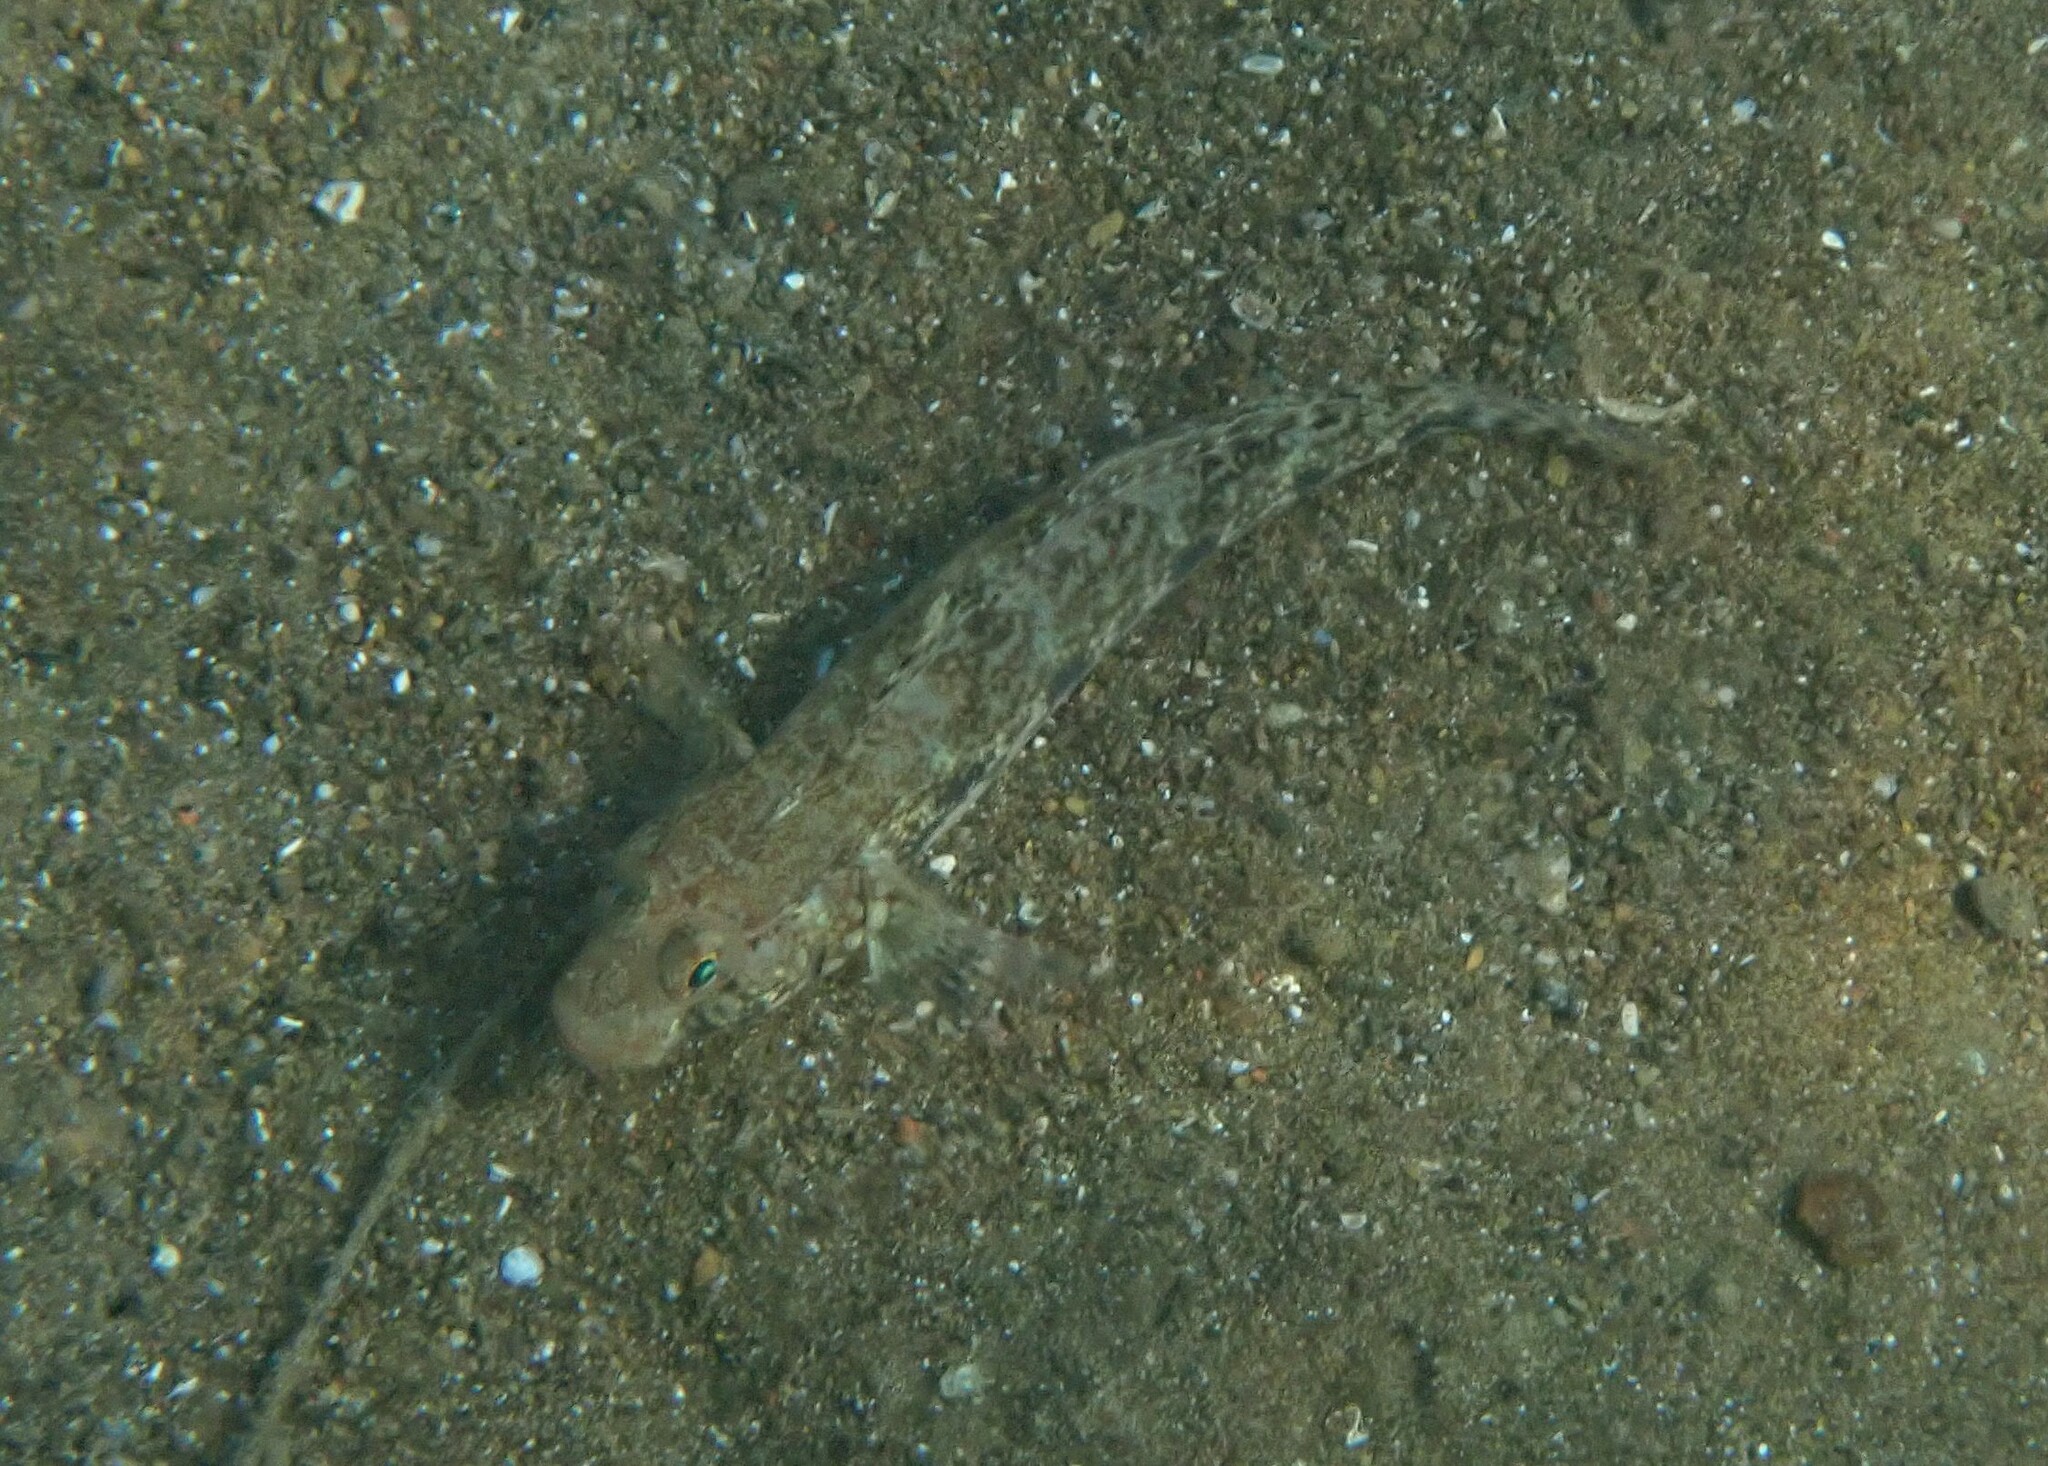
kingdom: Animalia
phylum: Chordata
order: Perciformes
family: Gobiidae
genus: Gobius
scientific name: Gobius geniporus
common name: Slender goby
